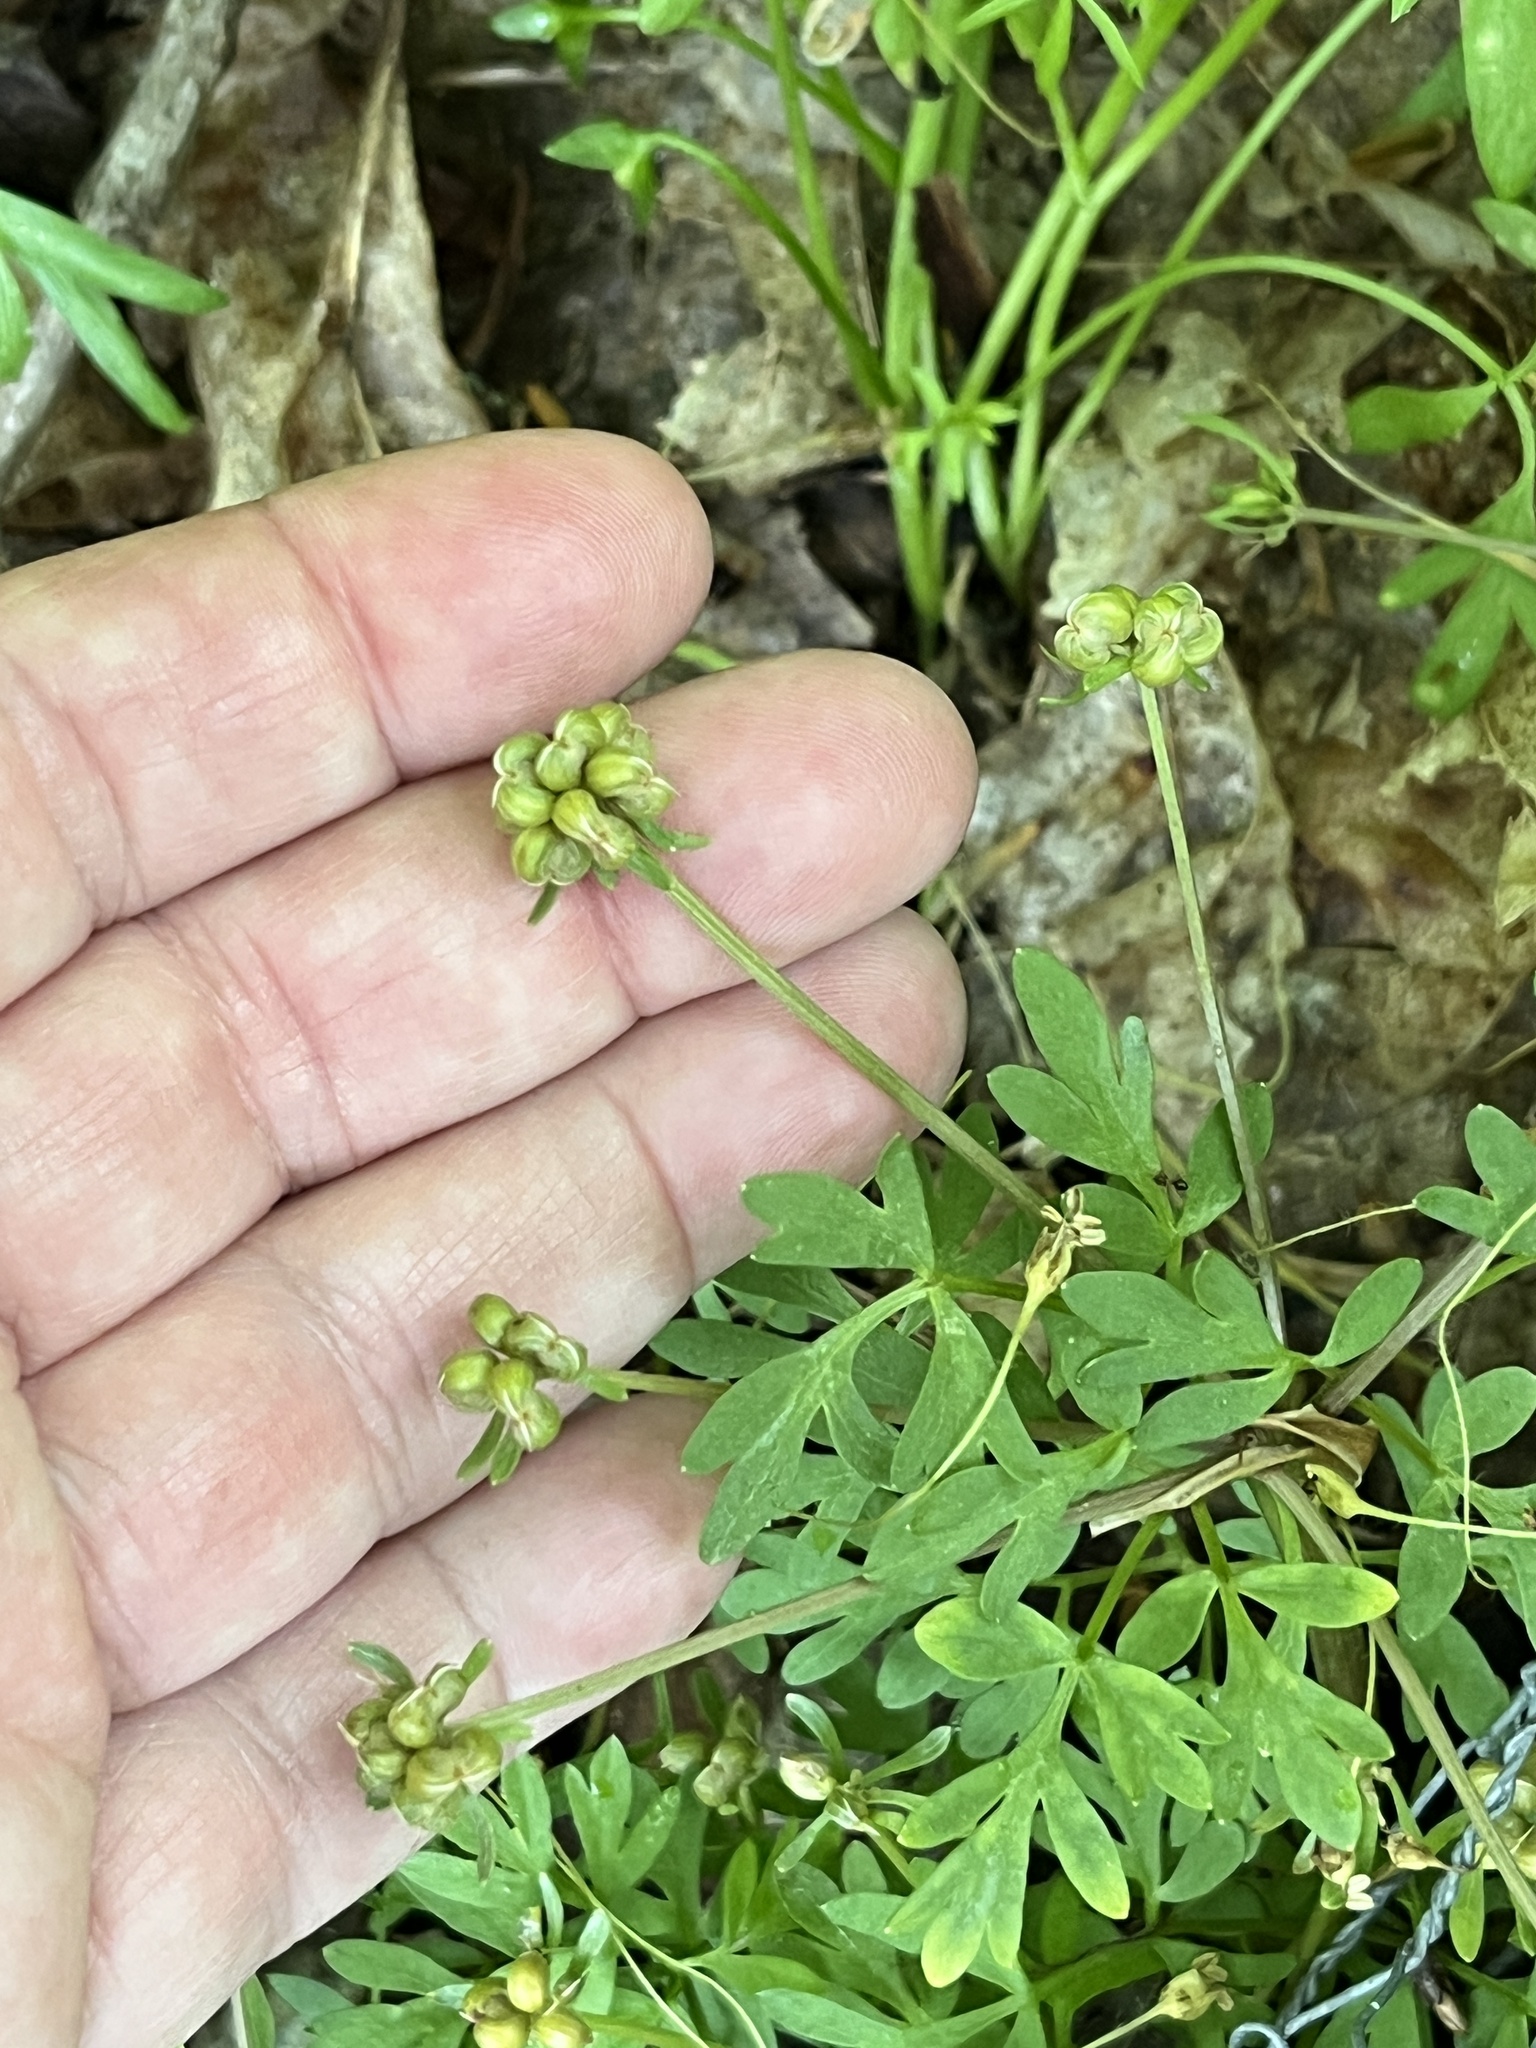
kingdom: Plantae
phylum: Tracheophyta
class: Magnoliopsida
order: Apiales
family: Apiaceae
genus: Erigenia
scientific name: Erigenia bulbosa
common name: Pepper-and-salt
